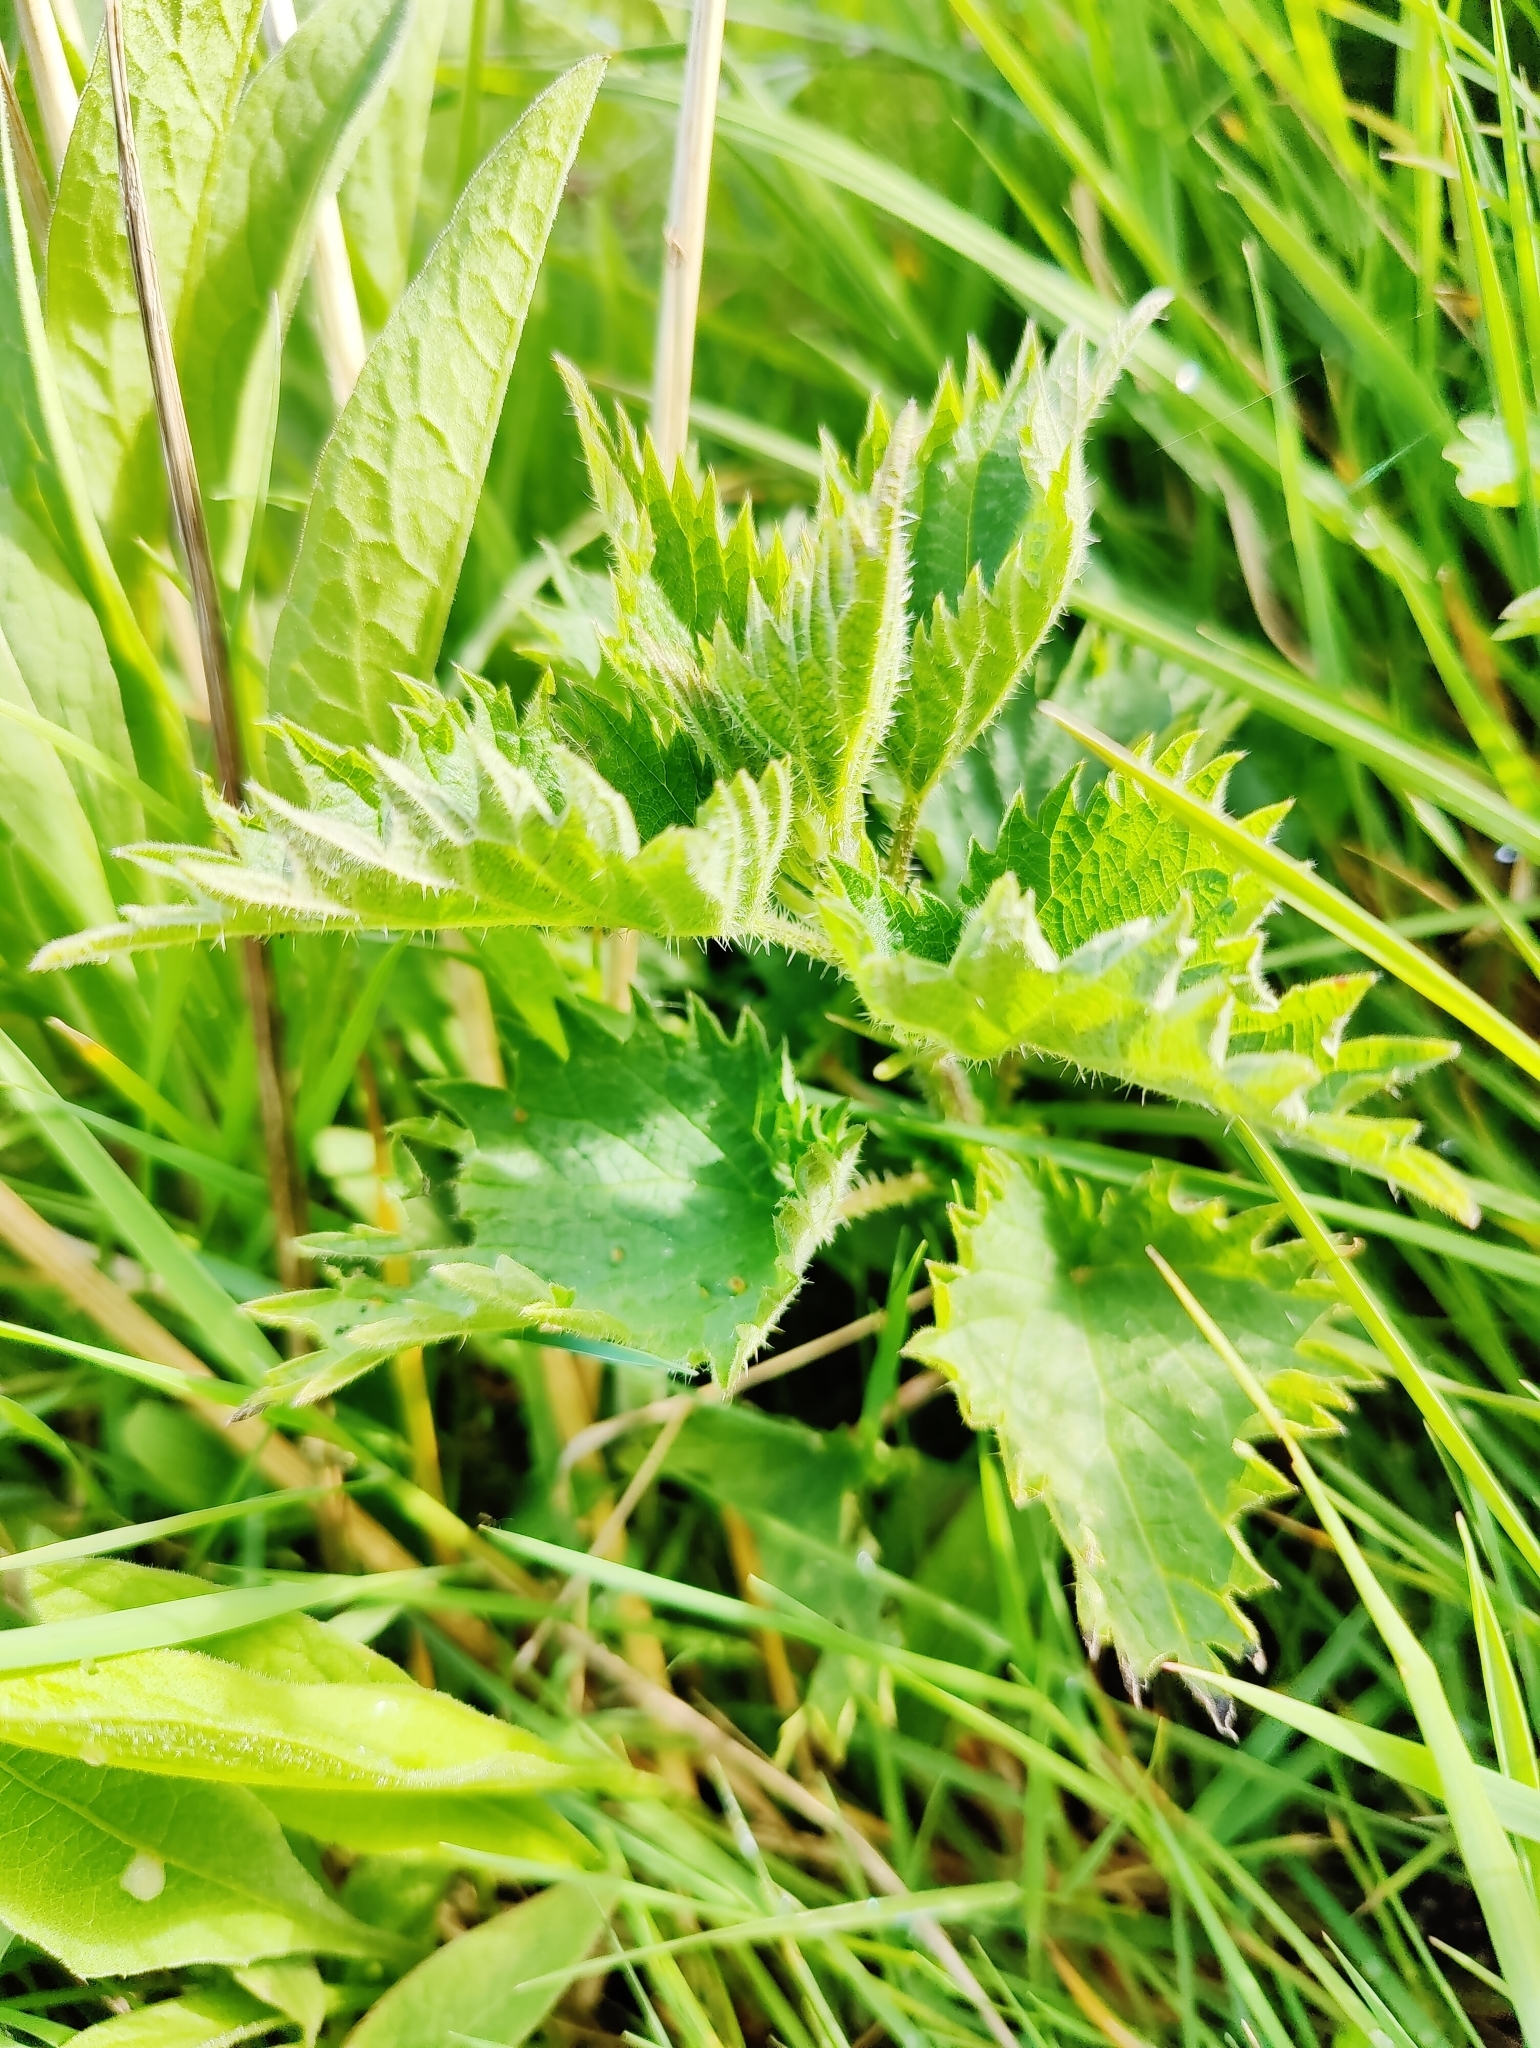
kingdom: Plantae
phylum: Tracheophyta
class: Magnoliopsida
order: Rosales
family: Urticaceae
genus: Urtica
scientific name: Urtica dioica
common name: Common nettle
